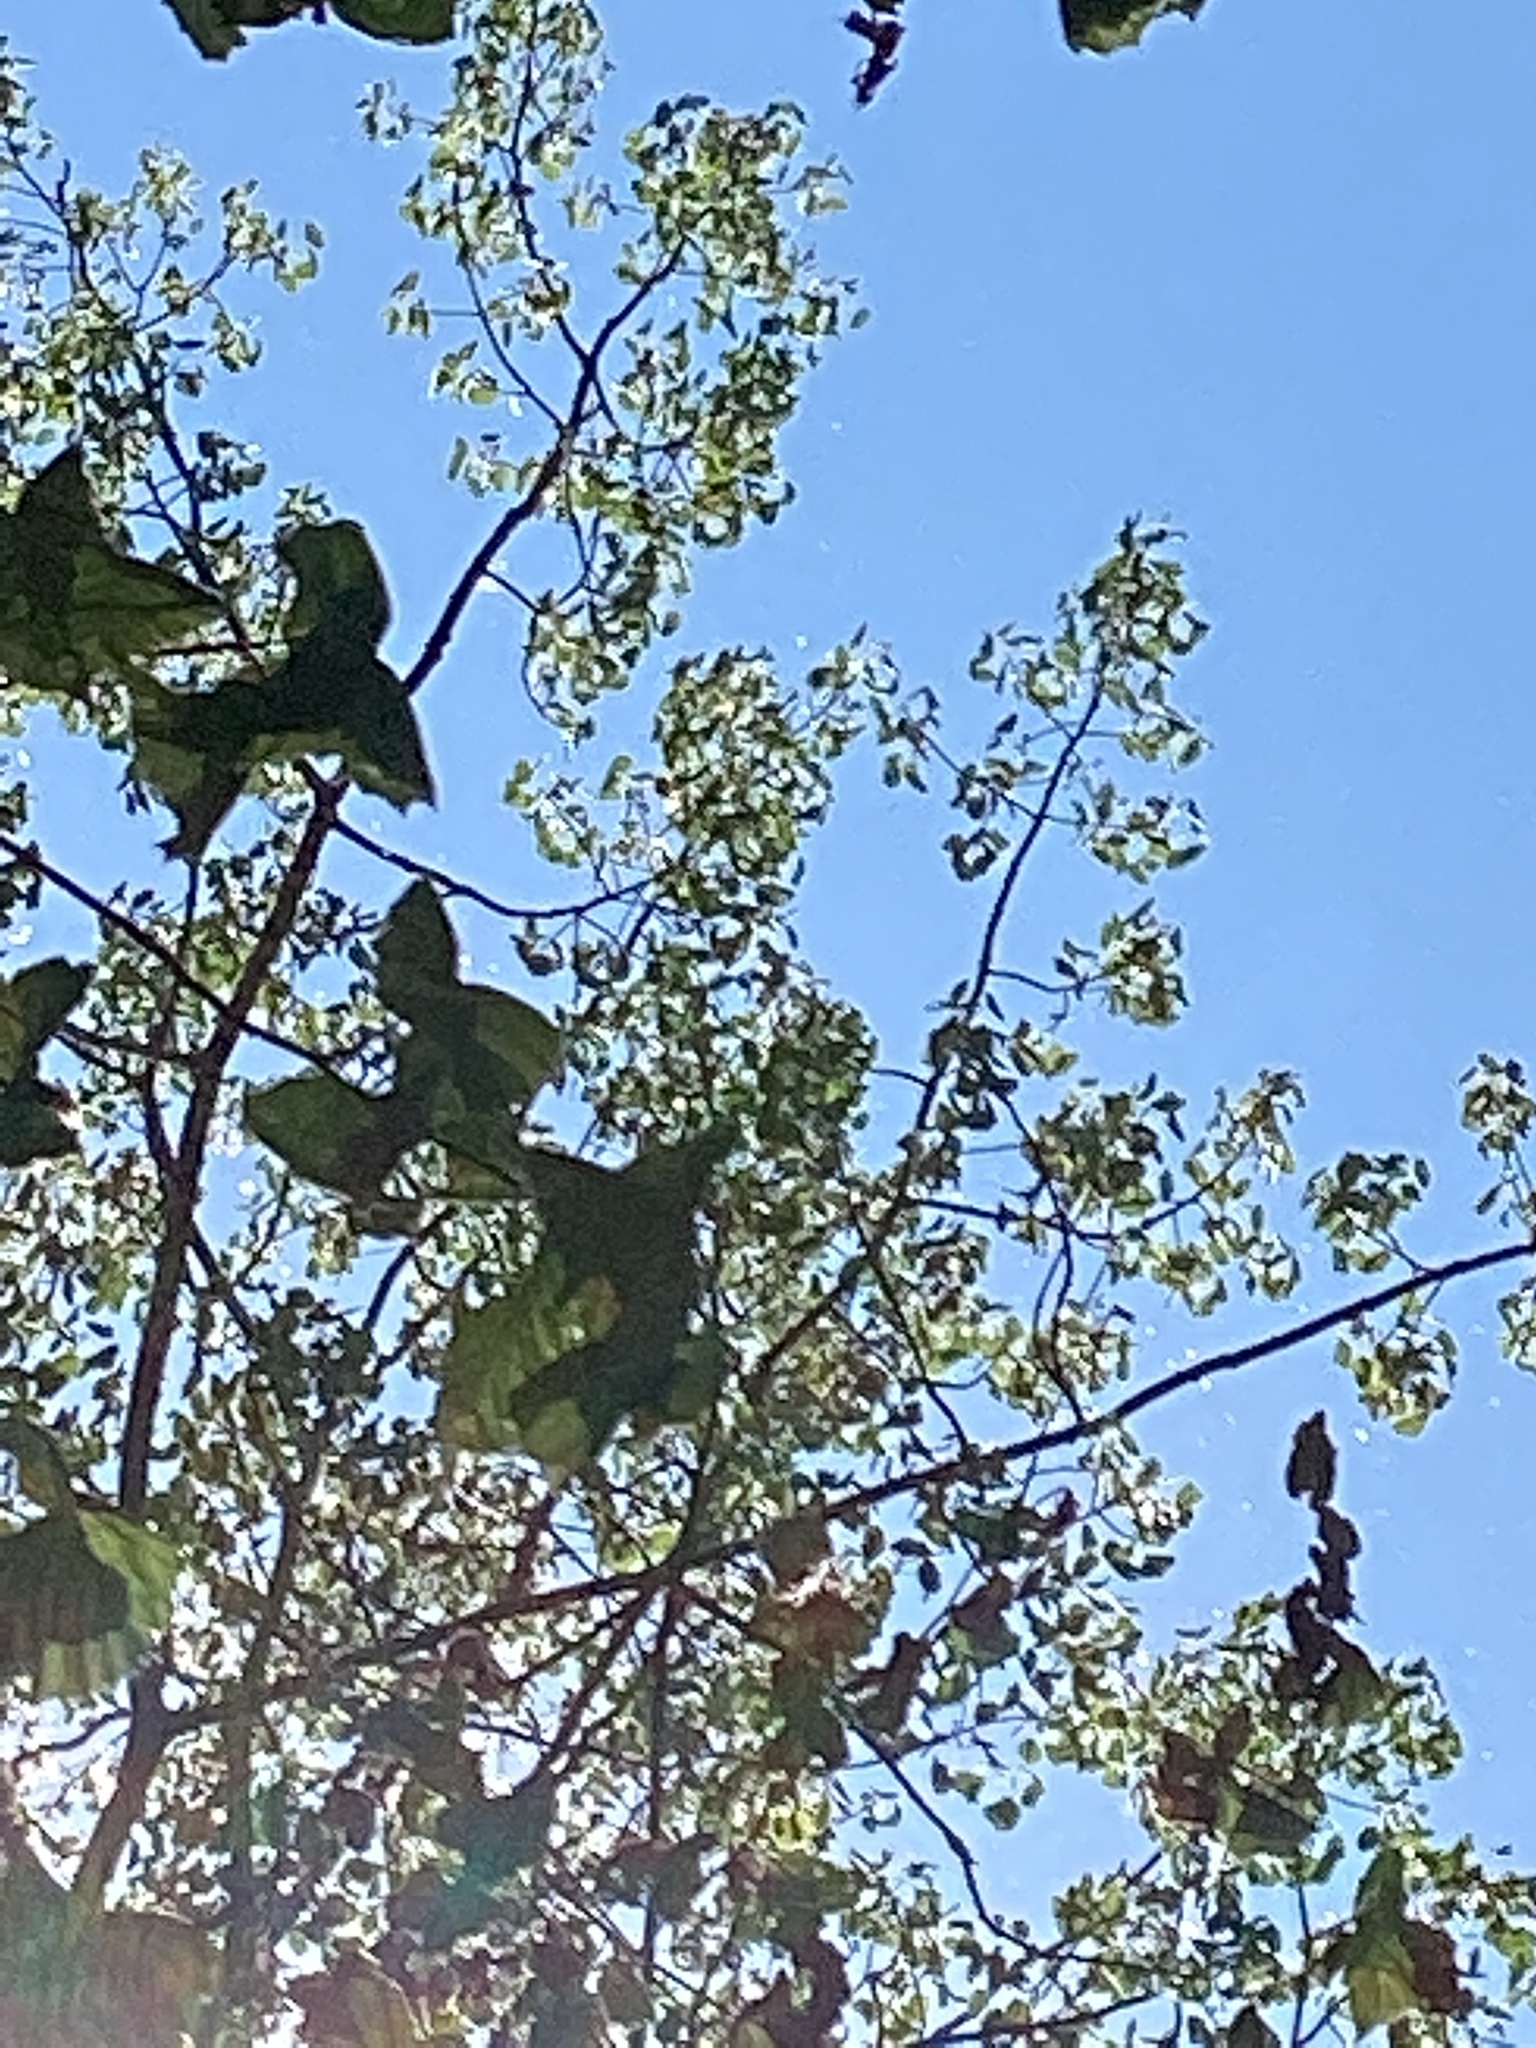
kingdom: Plantae
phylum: Tracheophyta
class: Magnoliopsida
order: Malpighiales
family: Salicaceae
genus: Populus
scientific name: Populus grandidentata
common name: Bigtooth aspen
